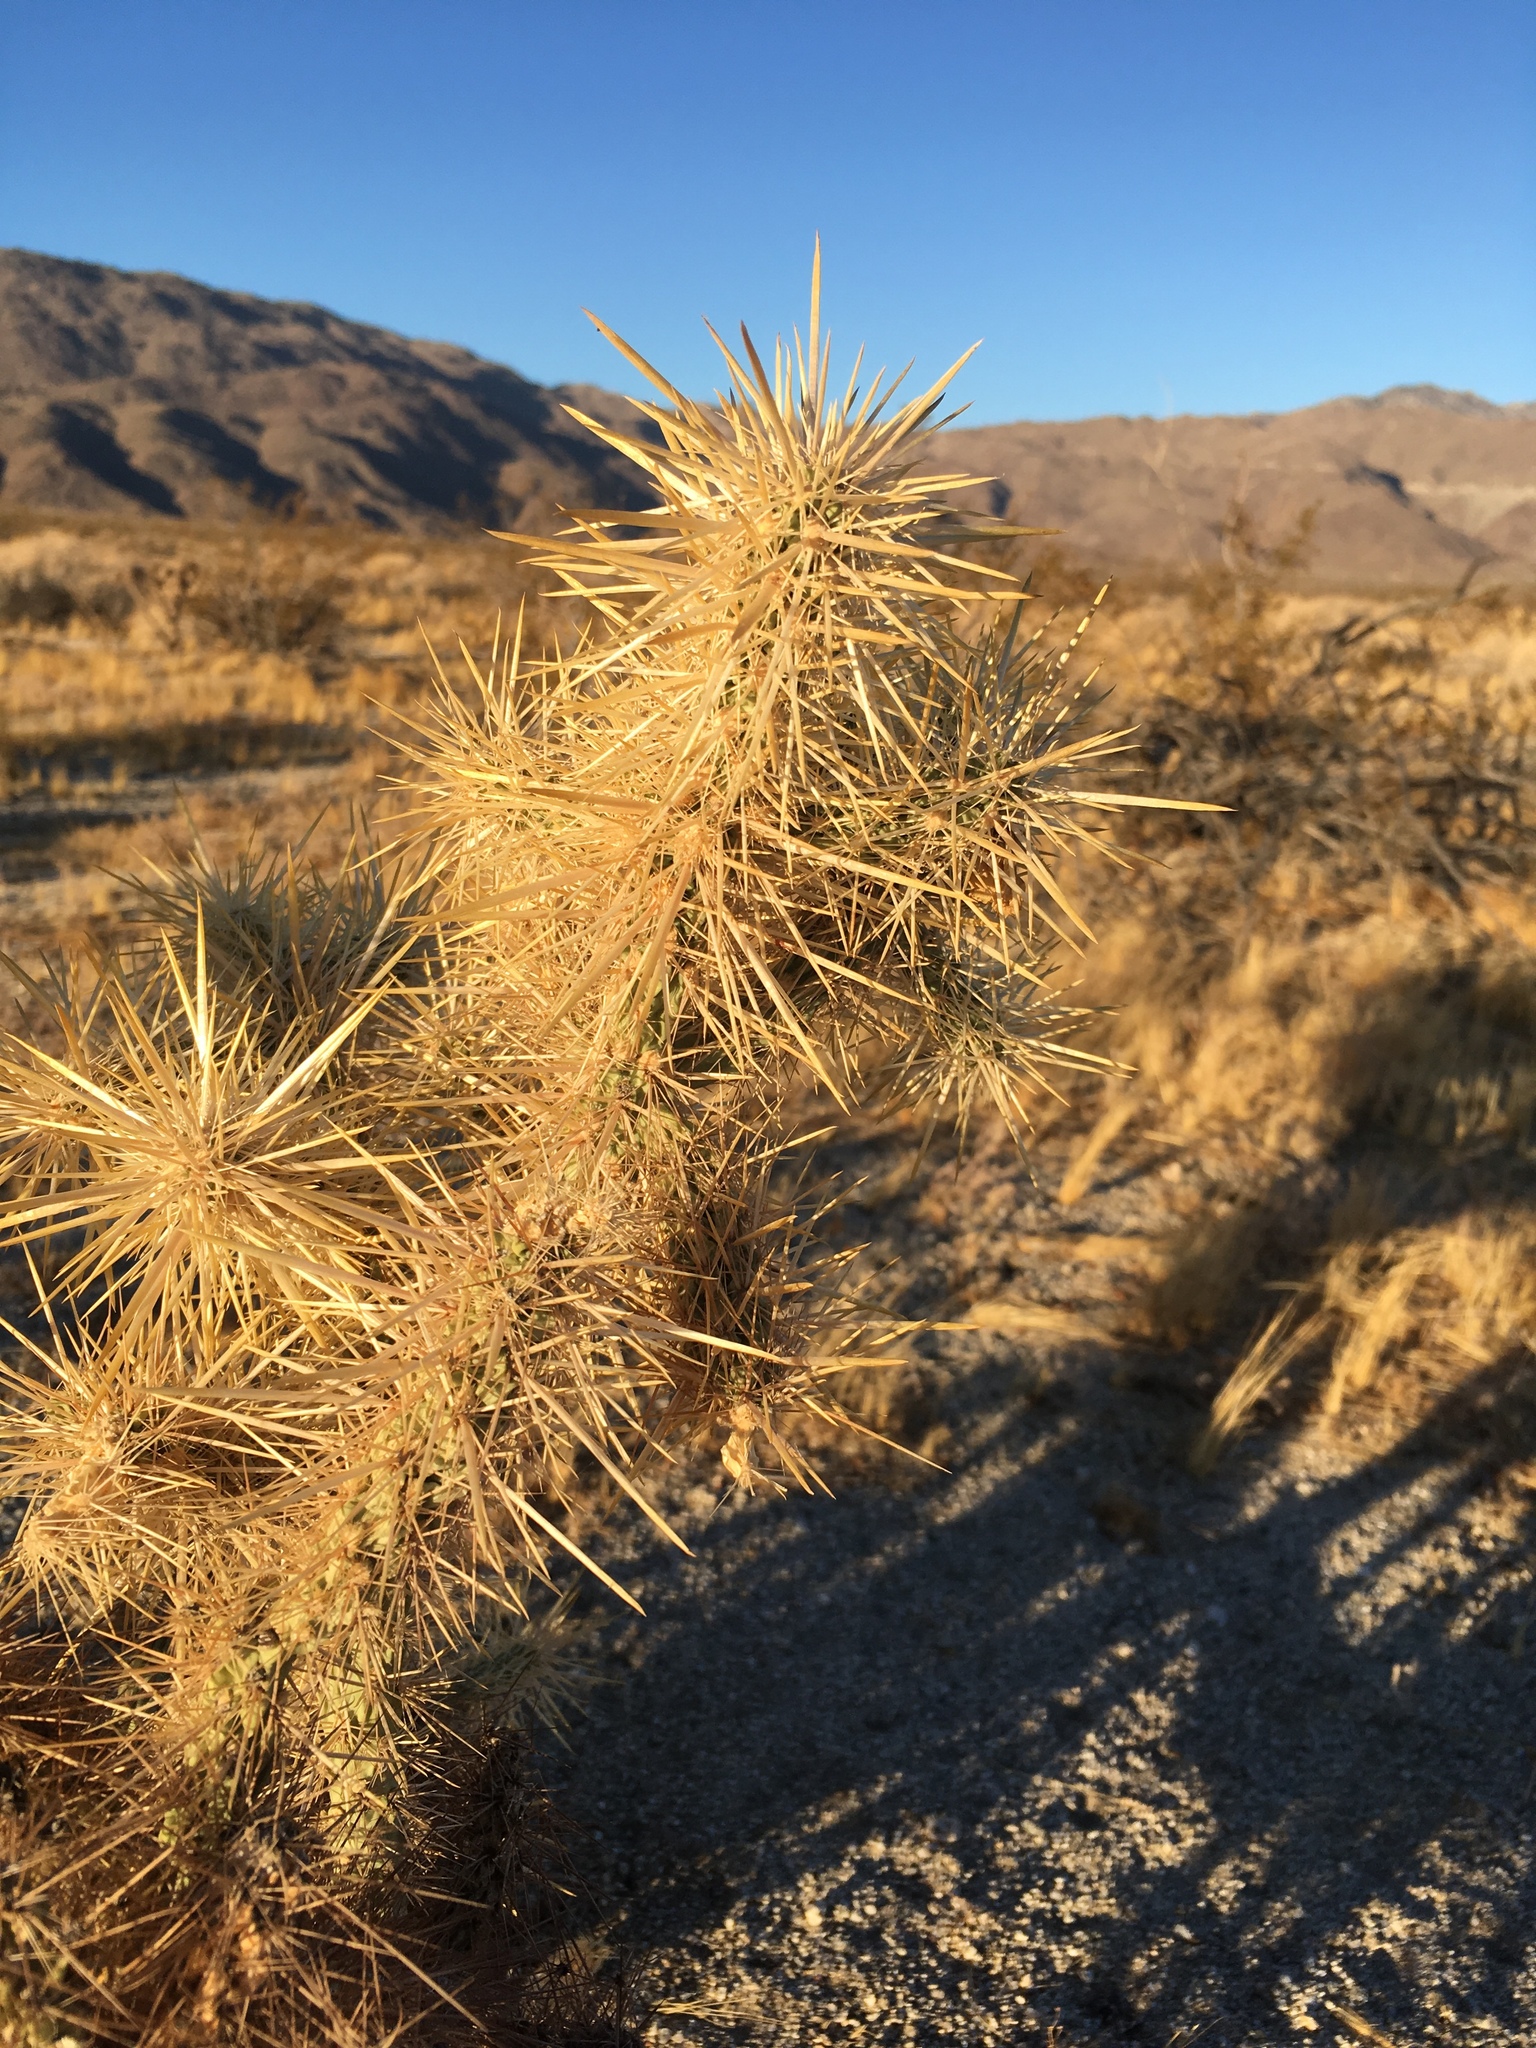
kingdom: Plantae
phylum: Tracheophyta
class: Magnoliopsida
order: Caryophyllales
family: Cactaceae
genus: Cylindropuntia
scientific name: Cylindropuntia echinocarpa
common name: Ground cholla
